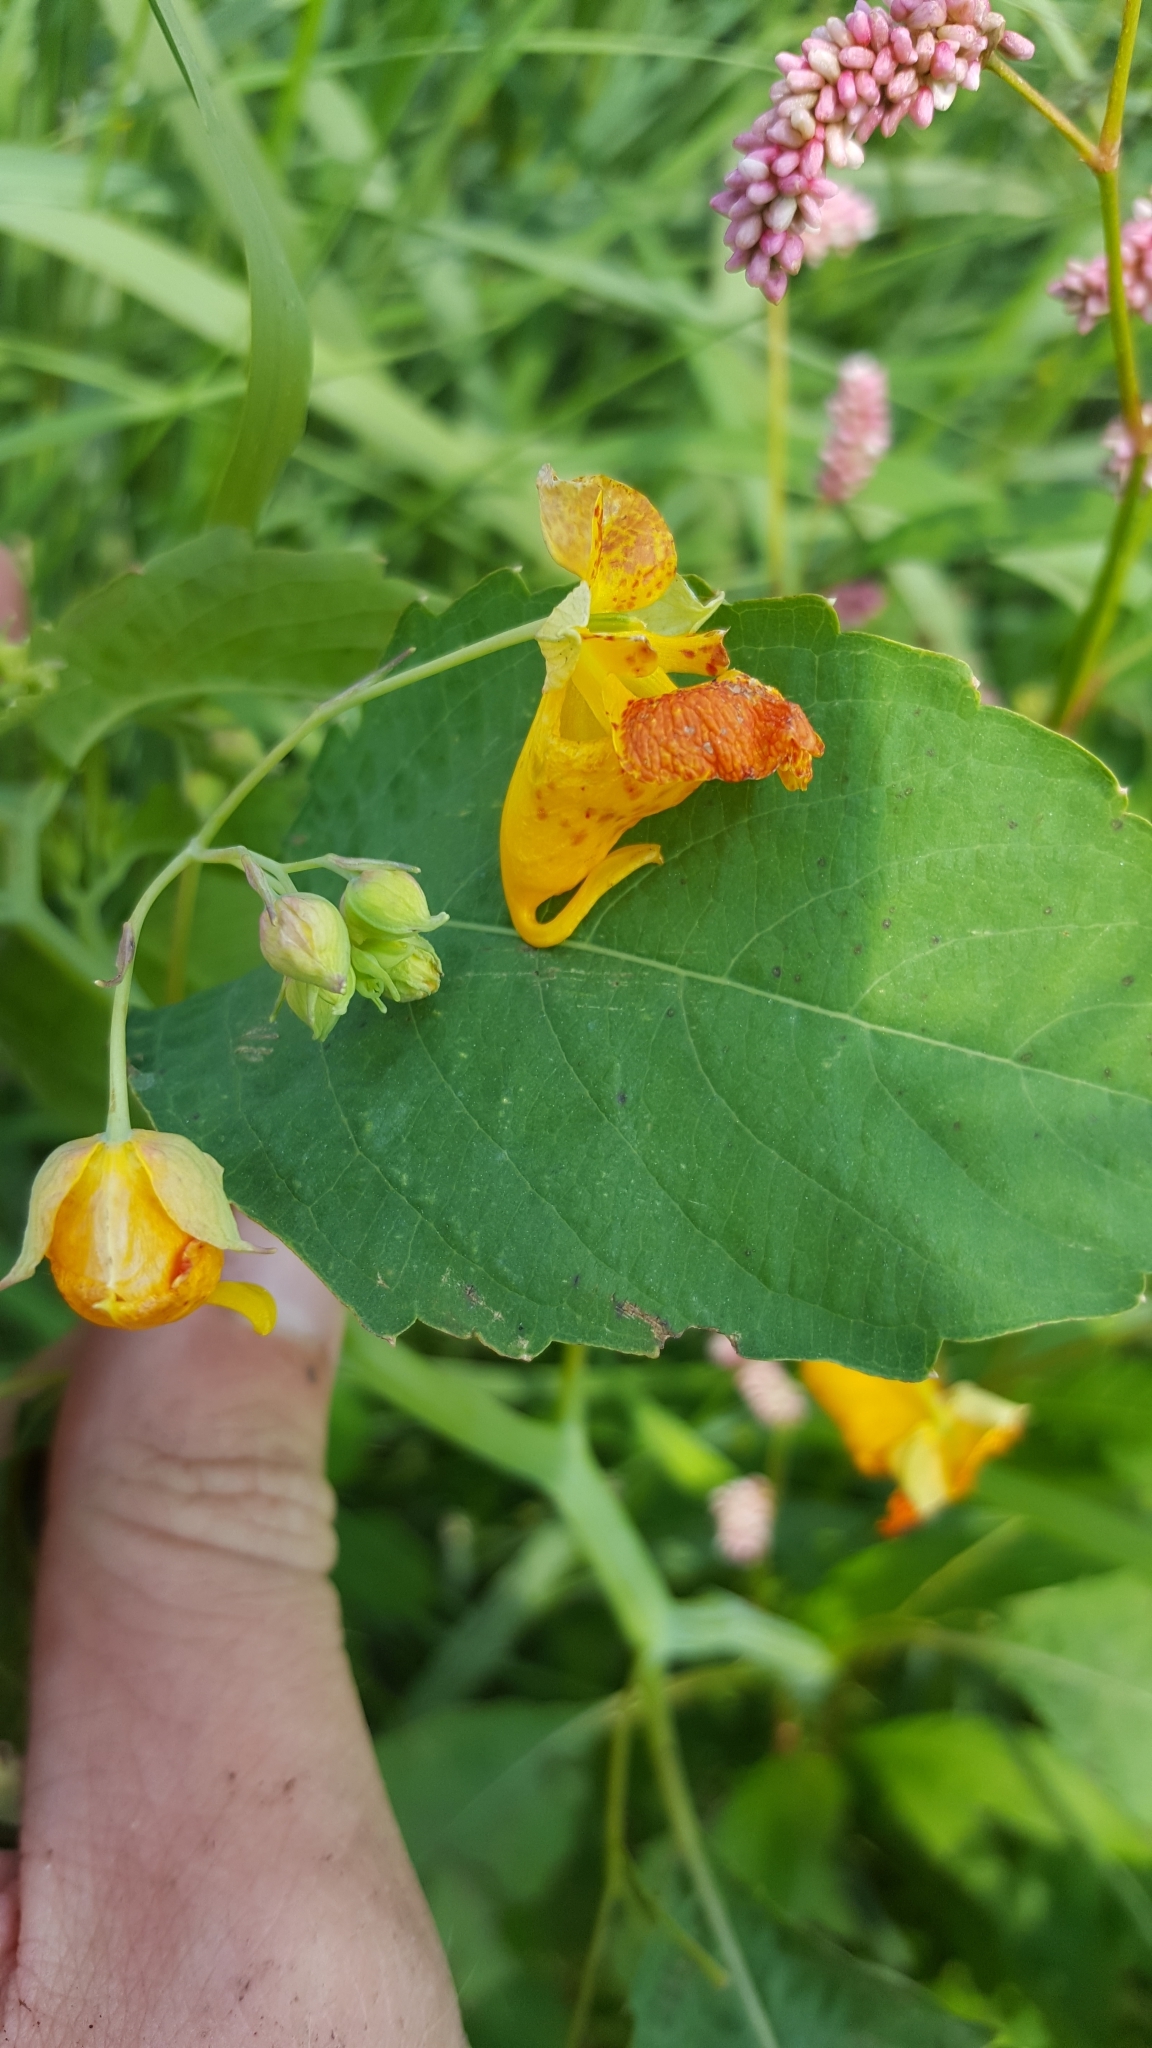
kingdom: Plantae
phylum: Tracheophyta
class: Magnoliopsida
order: Ericales
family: Balsaminaceae
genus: Impatiens
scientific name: Impatiens capensis
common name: Orange balsam
